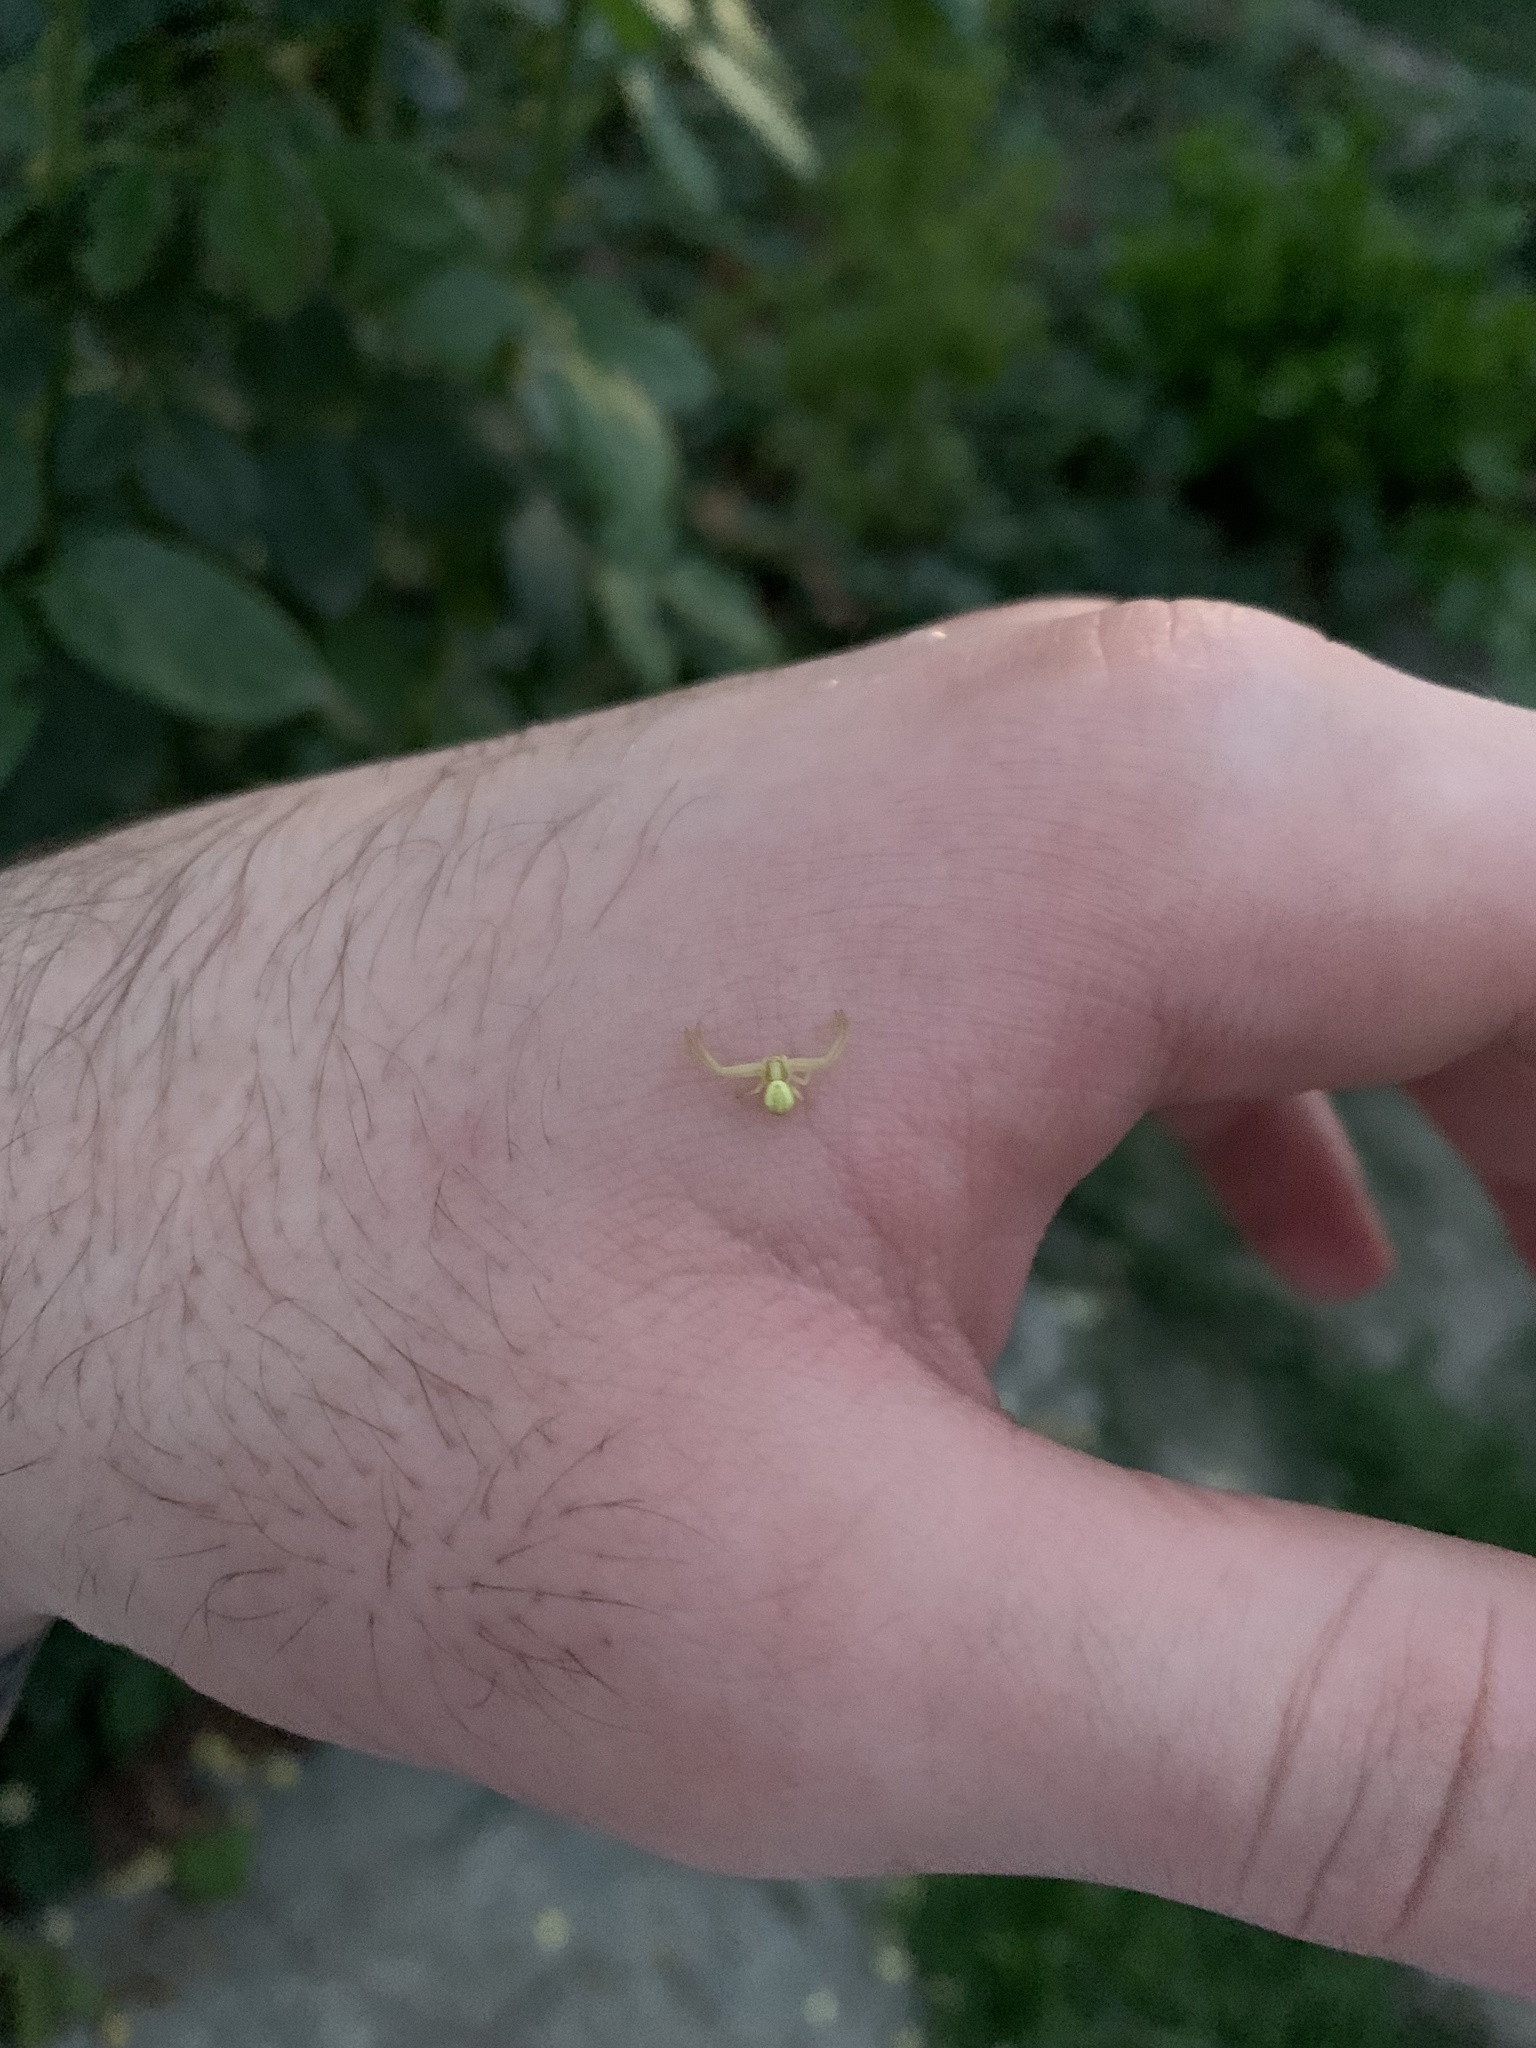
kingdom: Animalia
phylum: Arthropoda
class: Arachnida
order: Araneae
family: Thomisidae
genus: Misumena
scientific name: Misumena vatia
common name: Goldenrod crab spider
